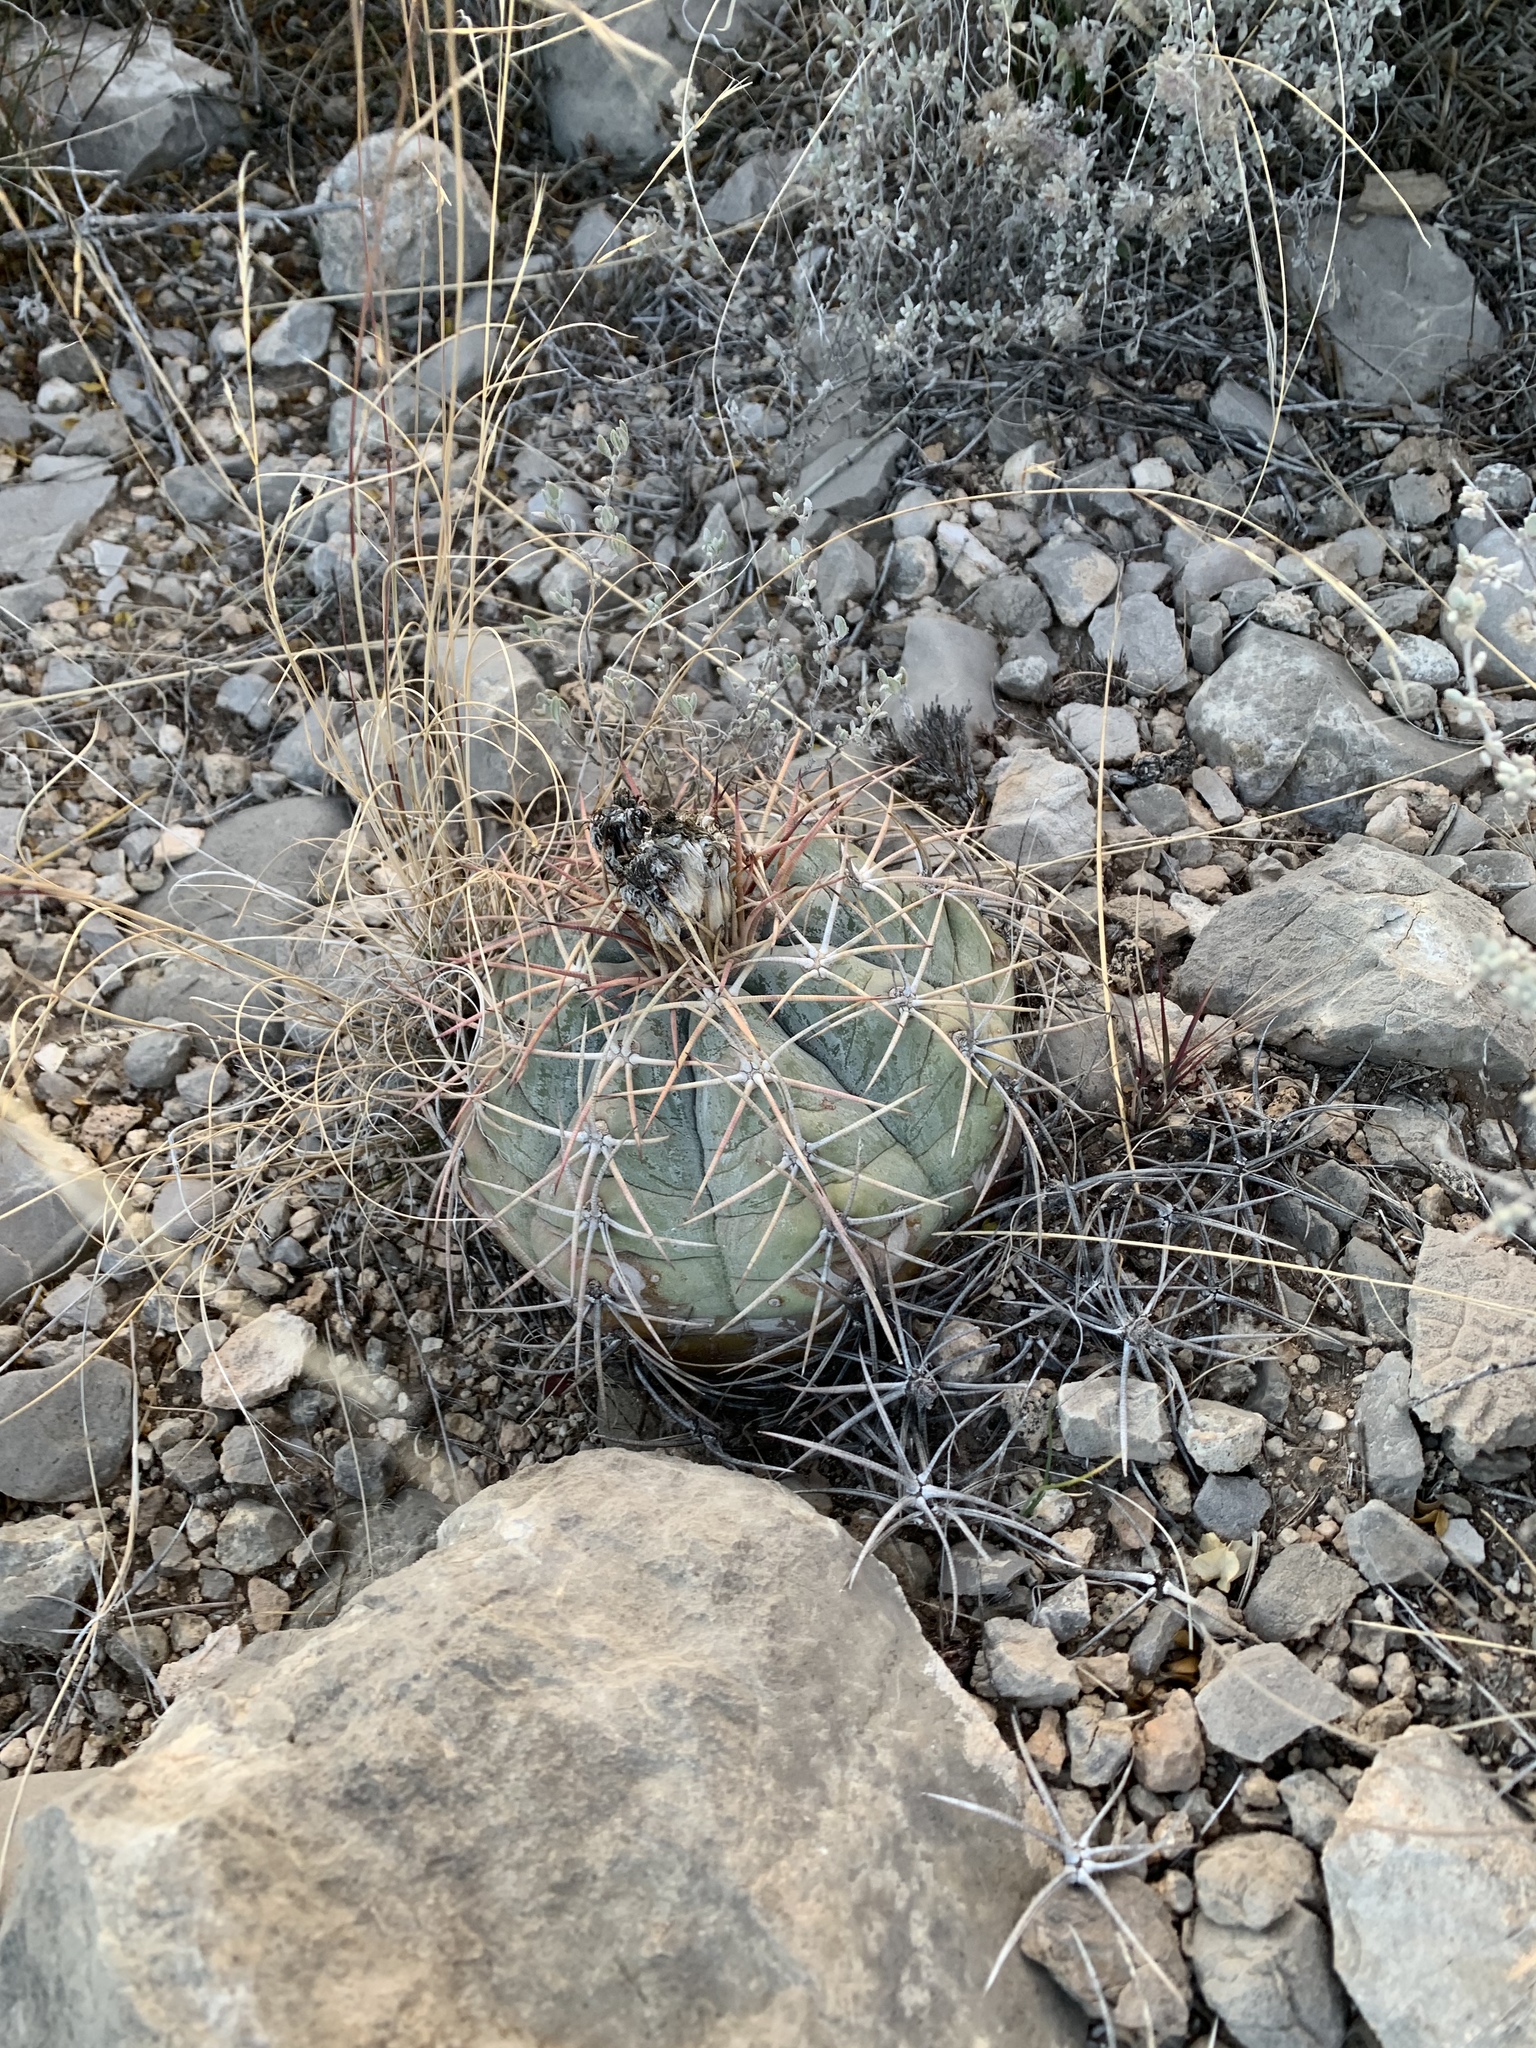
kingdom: Plantae
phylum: Tracheophyta
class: Magnoliopsida
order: Caryophyllales
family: Cactaceae
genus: Echinocactus
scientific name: Echinocactus horizonthalonius
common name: Devilshead
